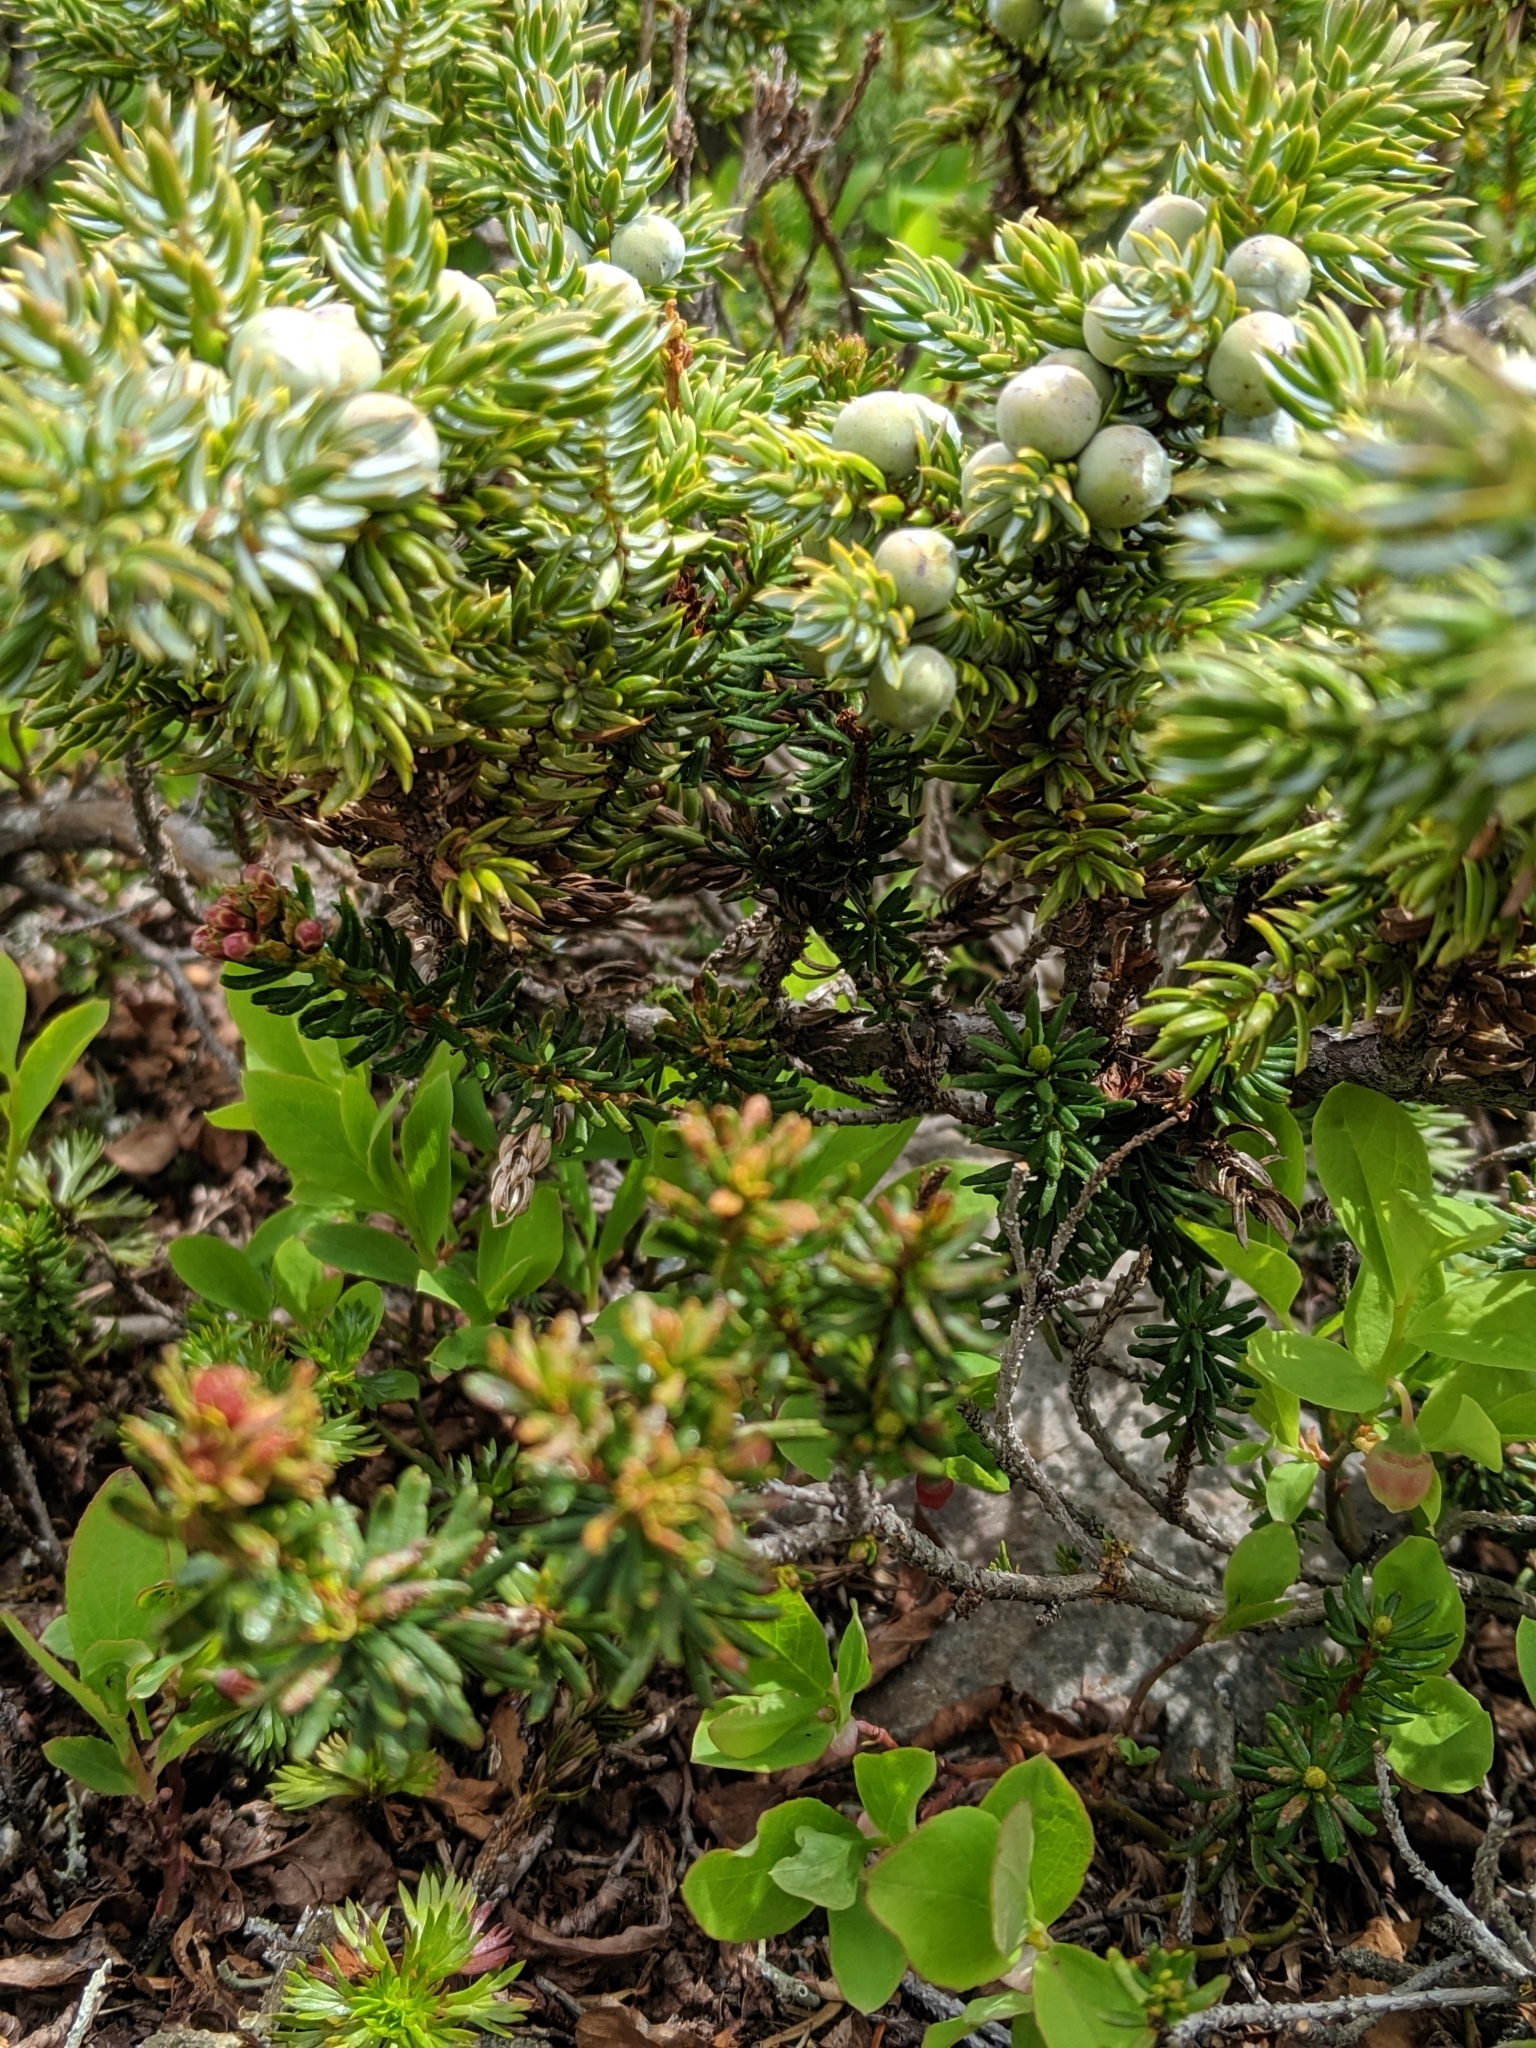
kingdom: Plantae
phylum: Tracheophyta
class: Pinopsida
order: Pinales
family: Cupressaceae
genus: Juniperus
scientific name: Juniperus communis
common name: Common juniper
